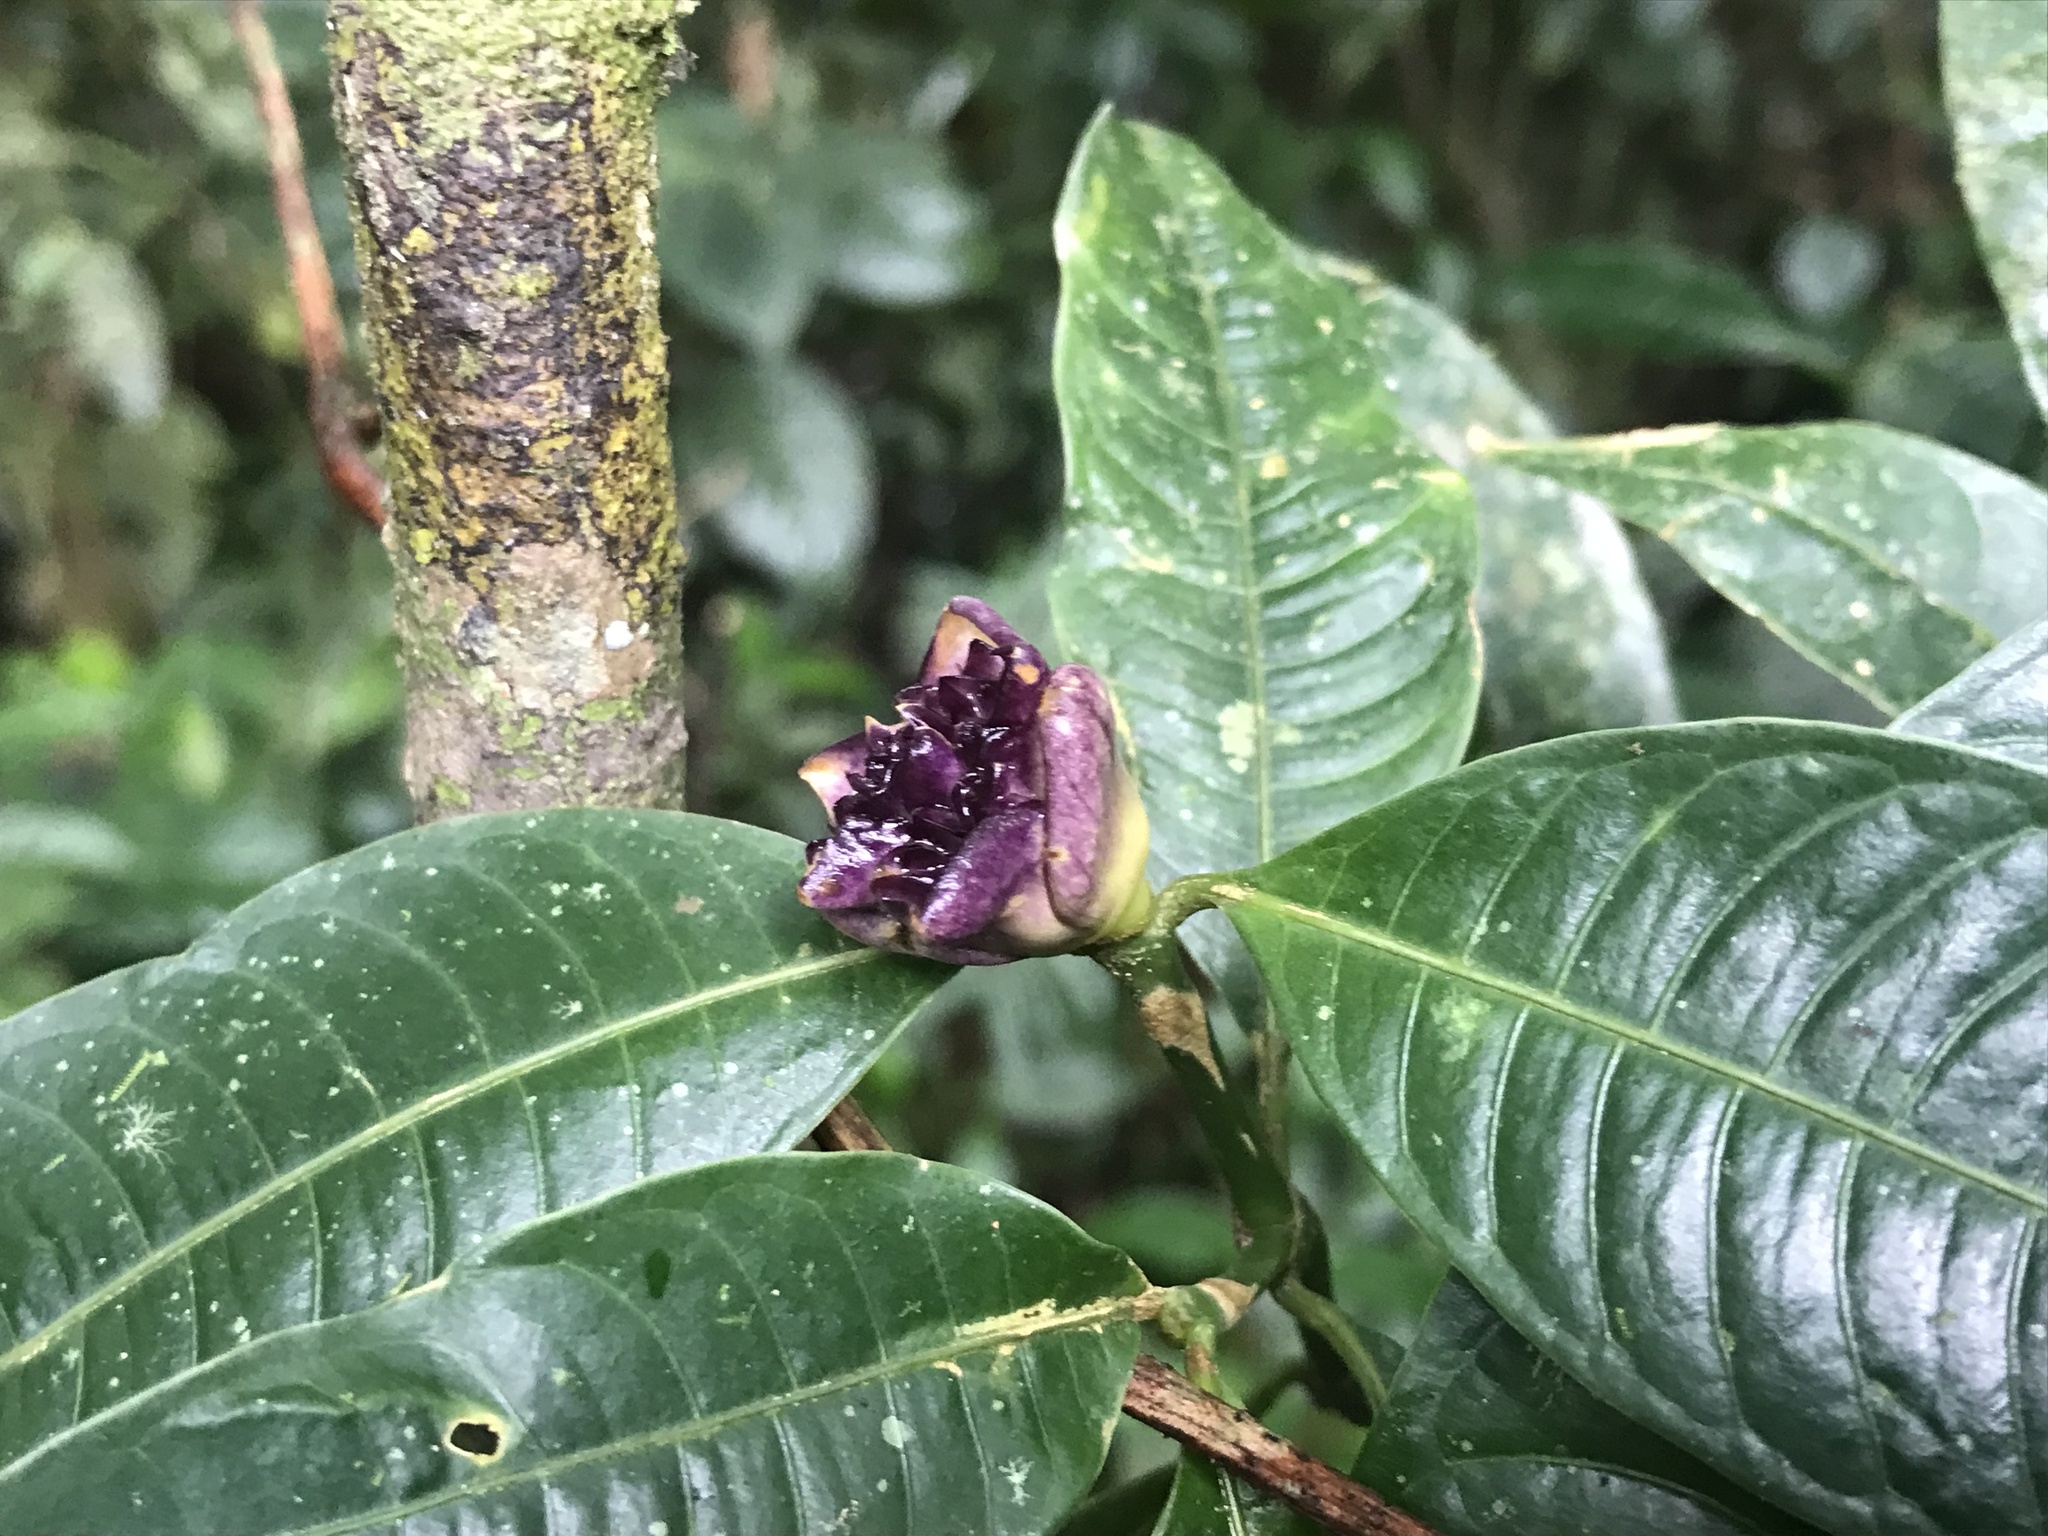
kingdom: Plantae
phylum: Tracheophyta
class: Magnoliopsida
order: Gentianales
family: Rubiaceae
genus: Palicourea
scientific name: Palicourea glomerulata
